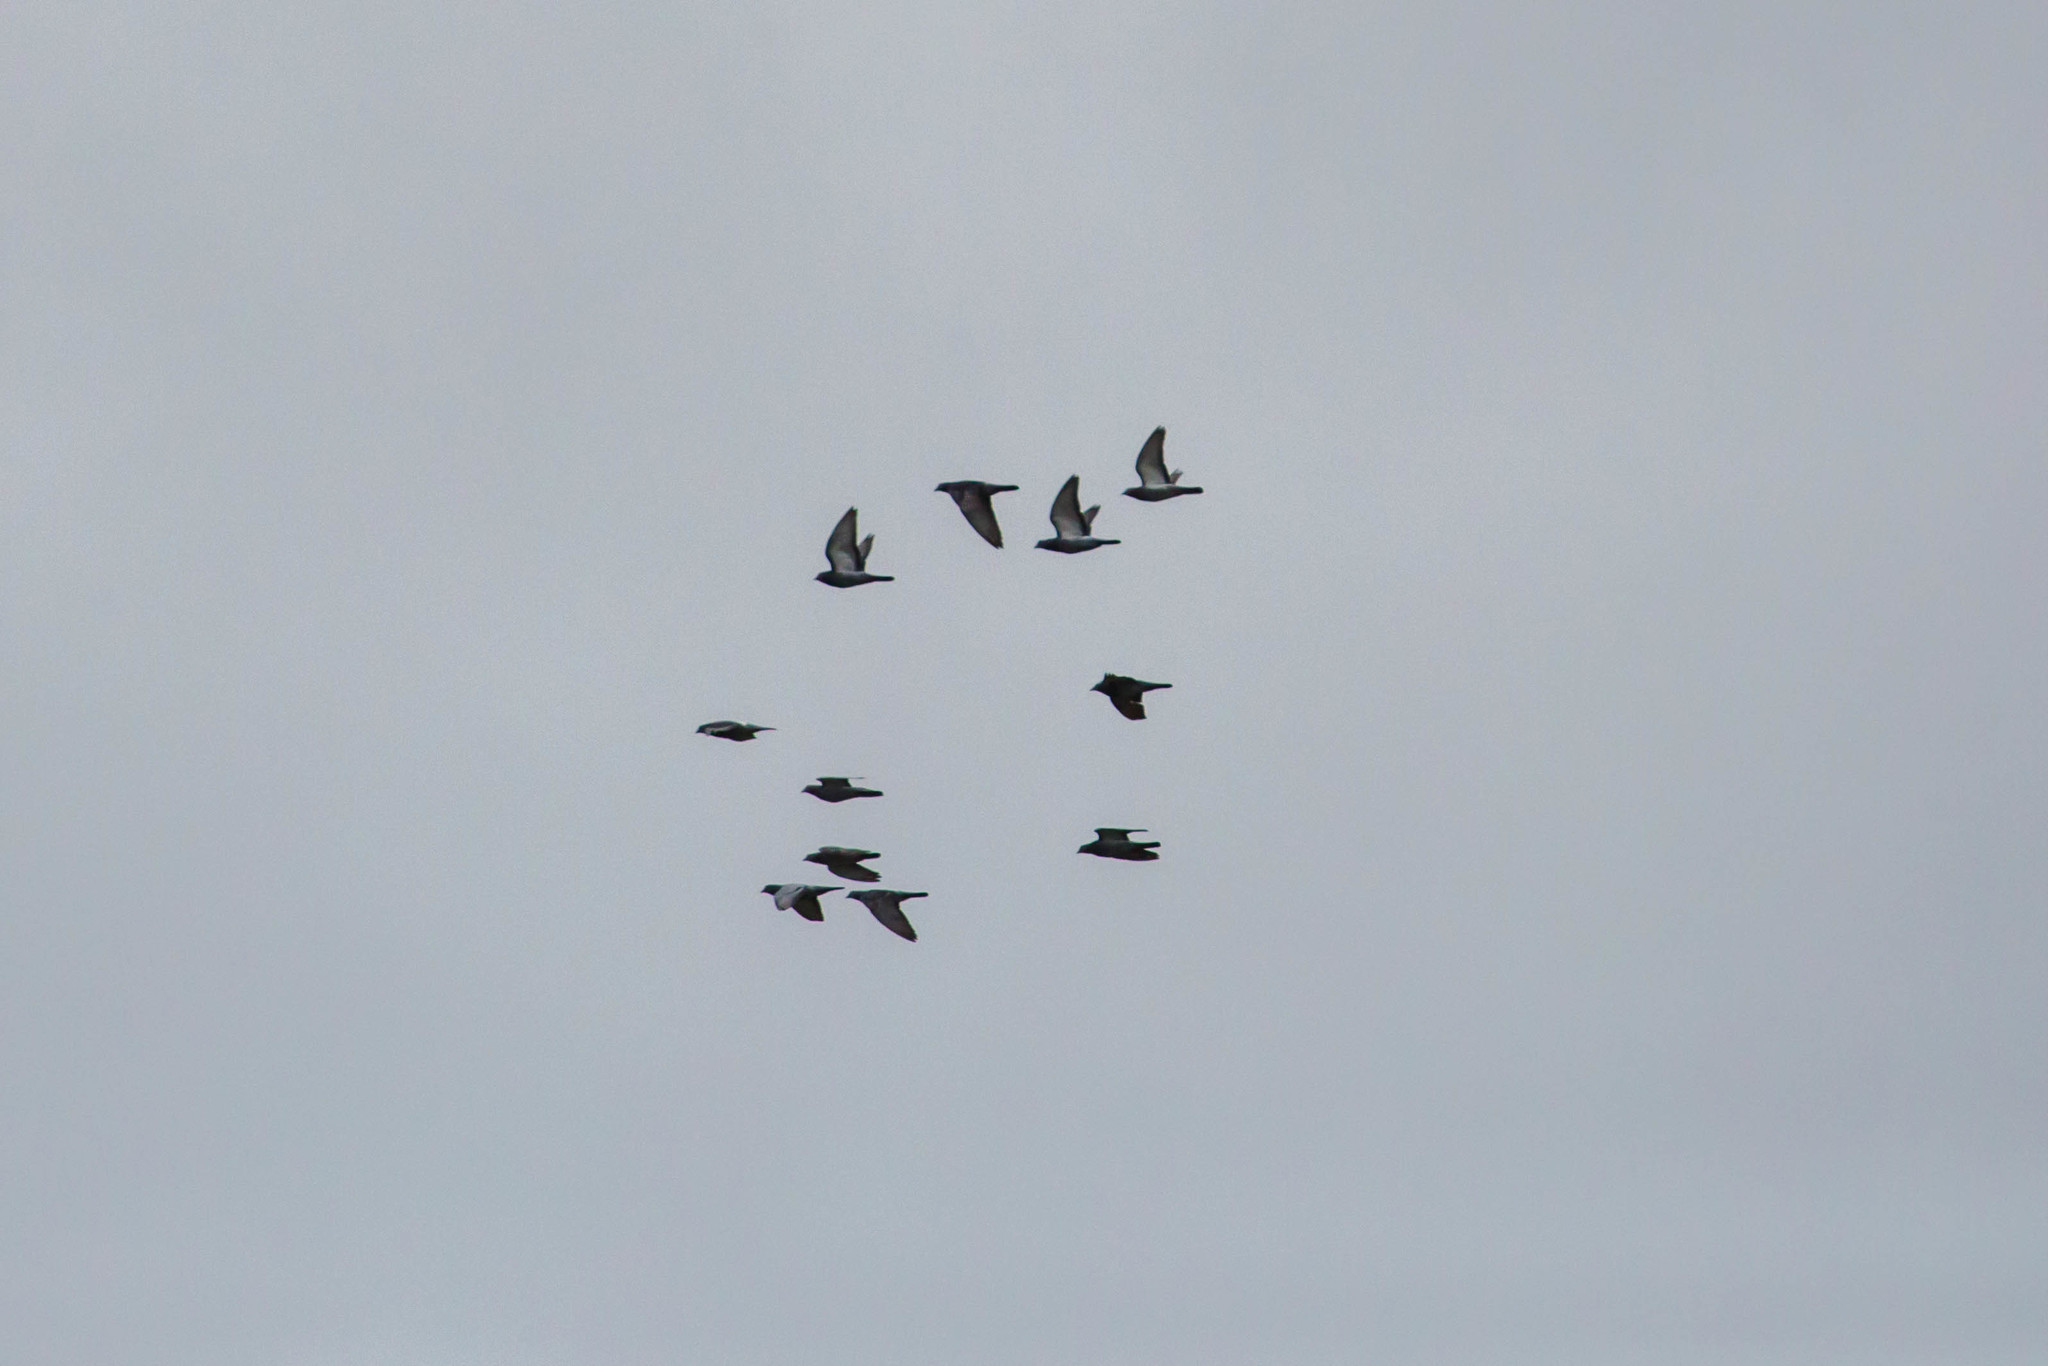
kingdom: Animalia
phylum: Chordata
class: Aves
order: Columbiformes
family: Columbidae
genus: Columba
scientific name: Columba livia
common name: Rock pigeon
